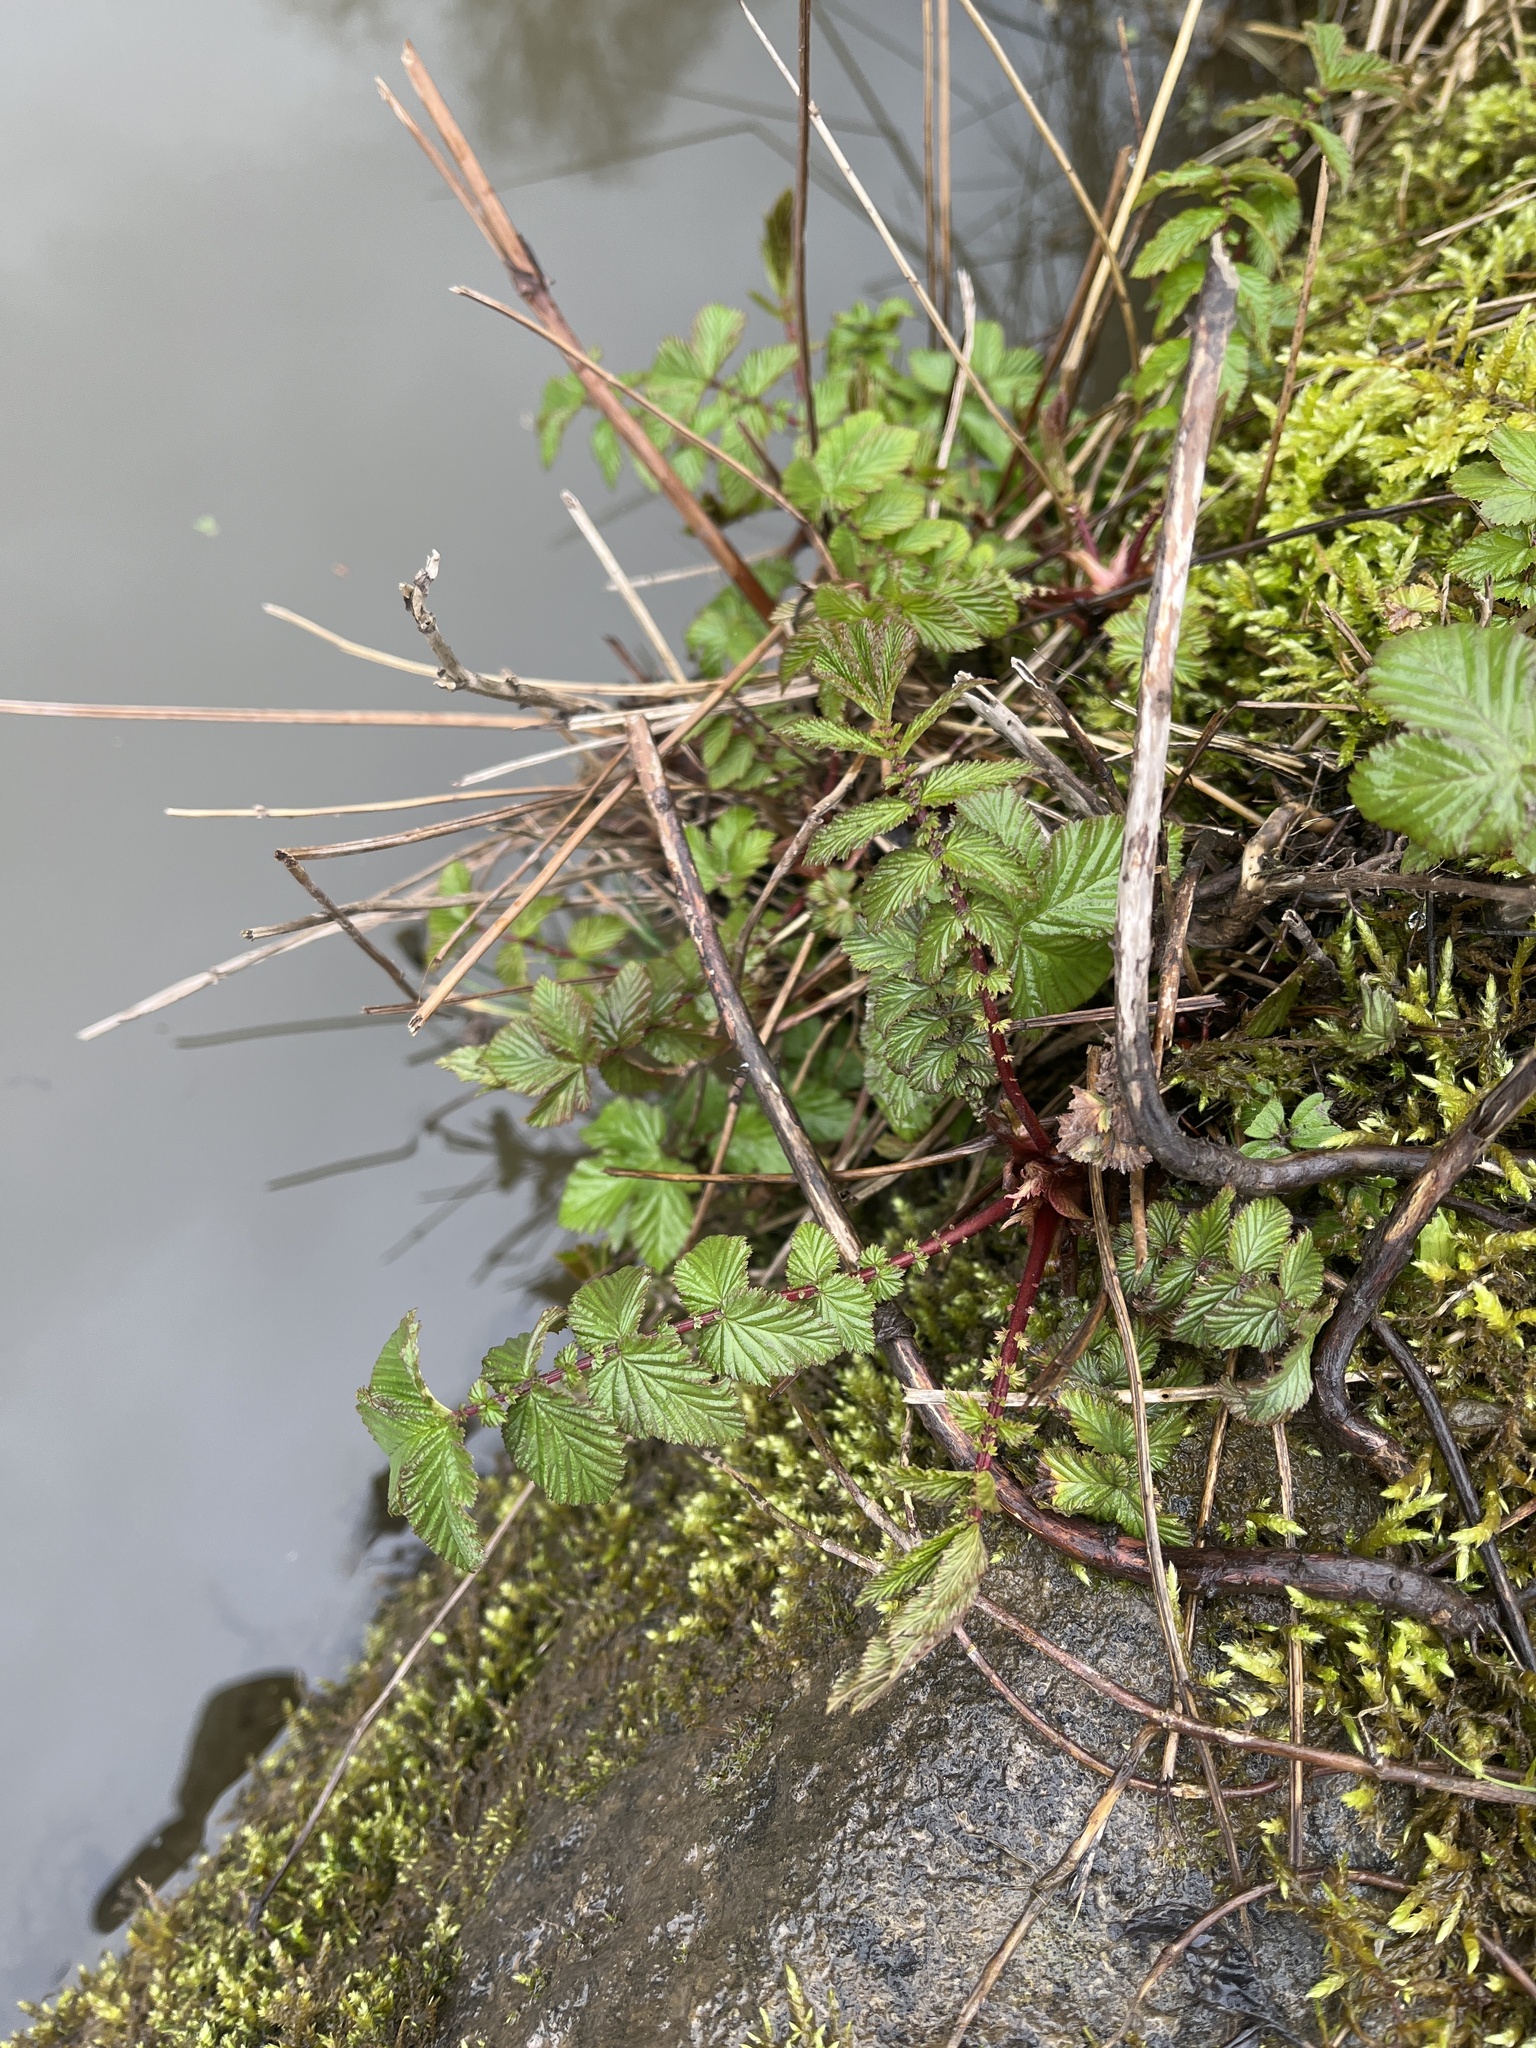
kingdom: Plantae
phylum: Tracheophyta
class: Magnoliopsida
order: Rosales
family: Rosaceae
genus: Filipendula
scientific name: Filipendula ulmaria
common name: Meadowsweet
